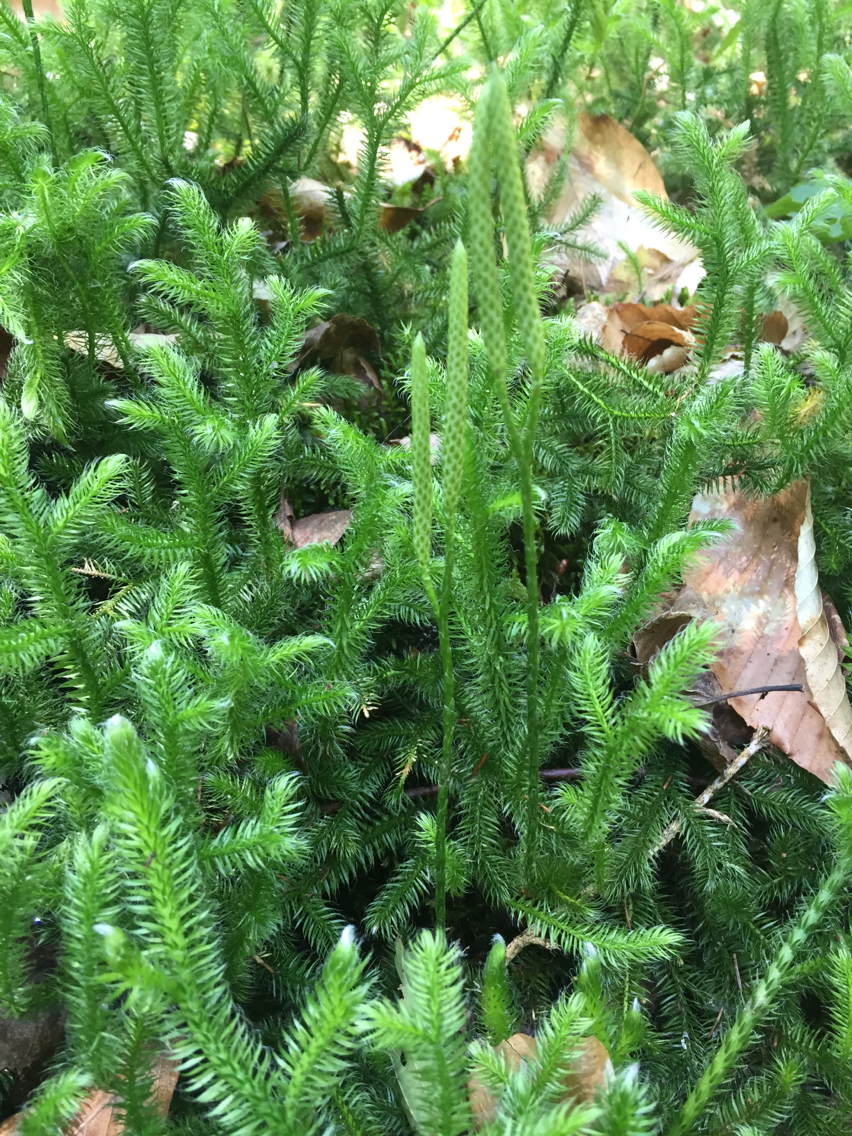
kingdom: Plantae
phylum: Tracheophyta
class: Lycopodiopsida
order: Lycopodiales
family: Lycopodiaceae
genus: Lycopodium
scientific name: Lycopodium clavatum
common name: Stag's-horn clubmoss
